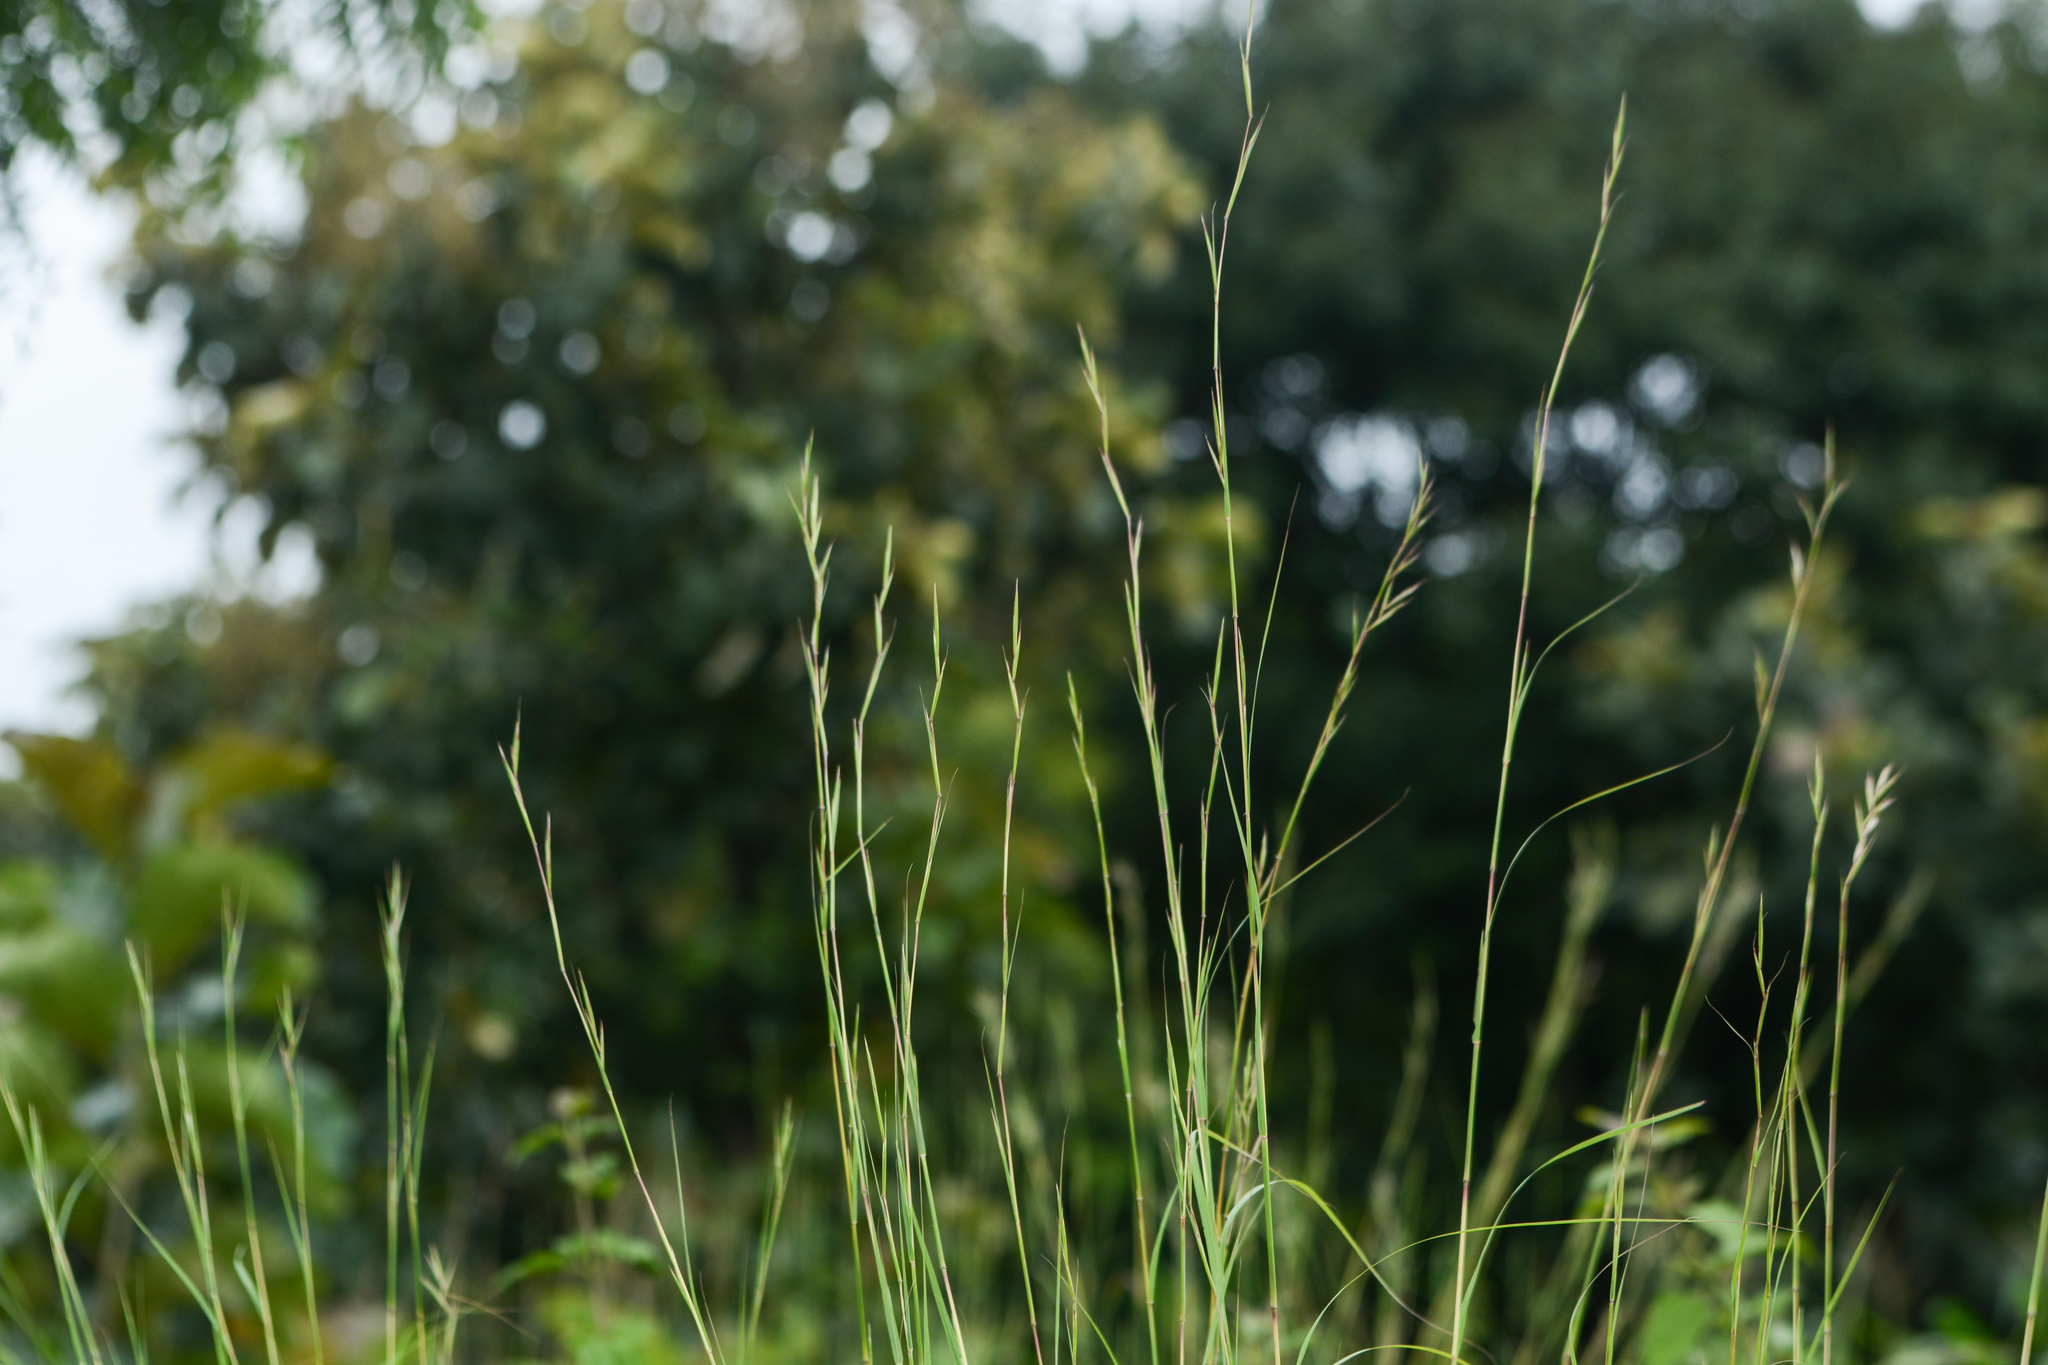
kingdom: Plantae
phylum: Tracheophyta
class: Liliopsida
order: Poales
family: Poaceae
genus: Cymbopogon
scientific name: Cymbopogon caesius
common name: Kachi grass
